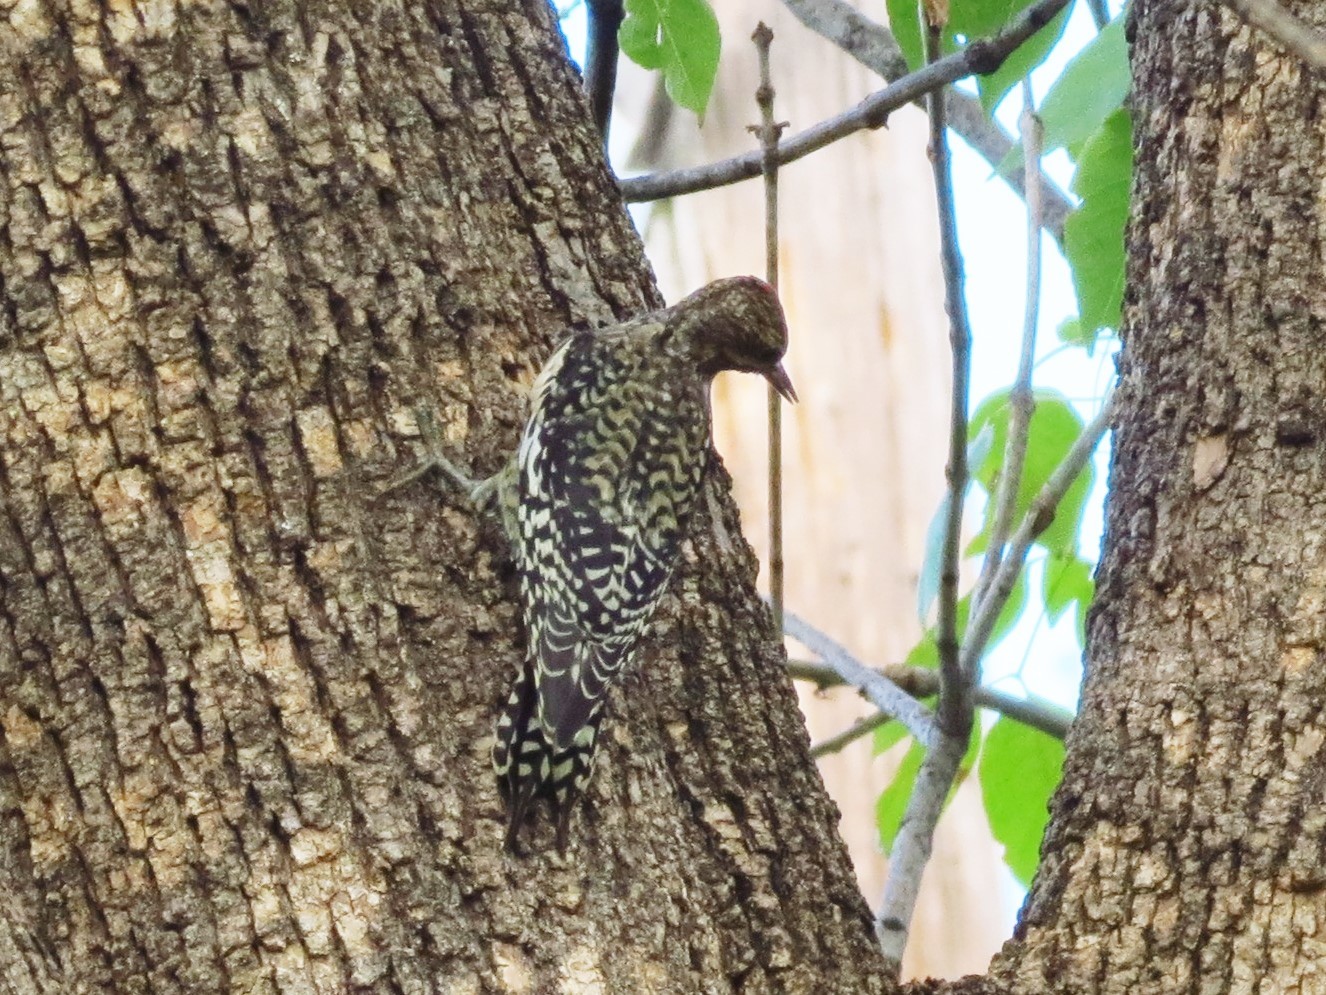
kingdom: Animalia
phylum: Chordata
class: Aves
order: Piciformes
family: Picidae
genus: Sphyrapicus
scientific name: Sphyrapicus varius
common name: Yellow-bellied sapsucker
